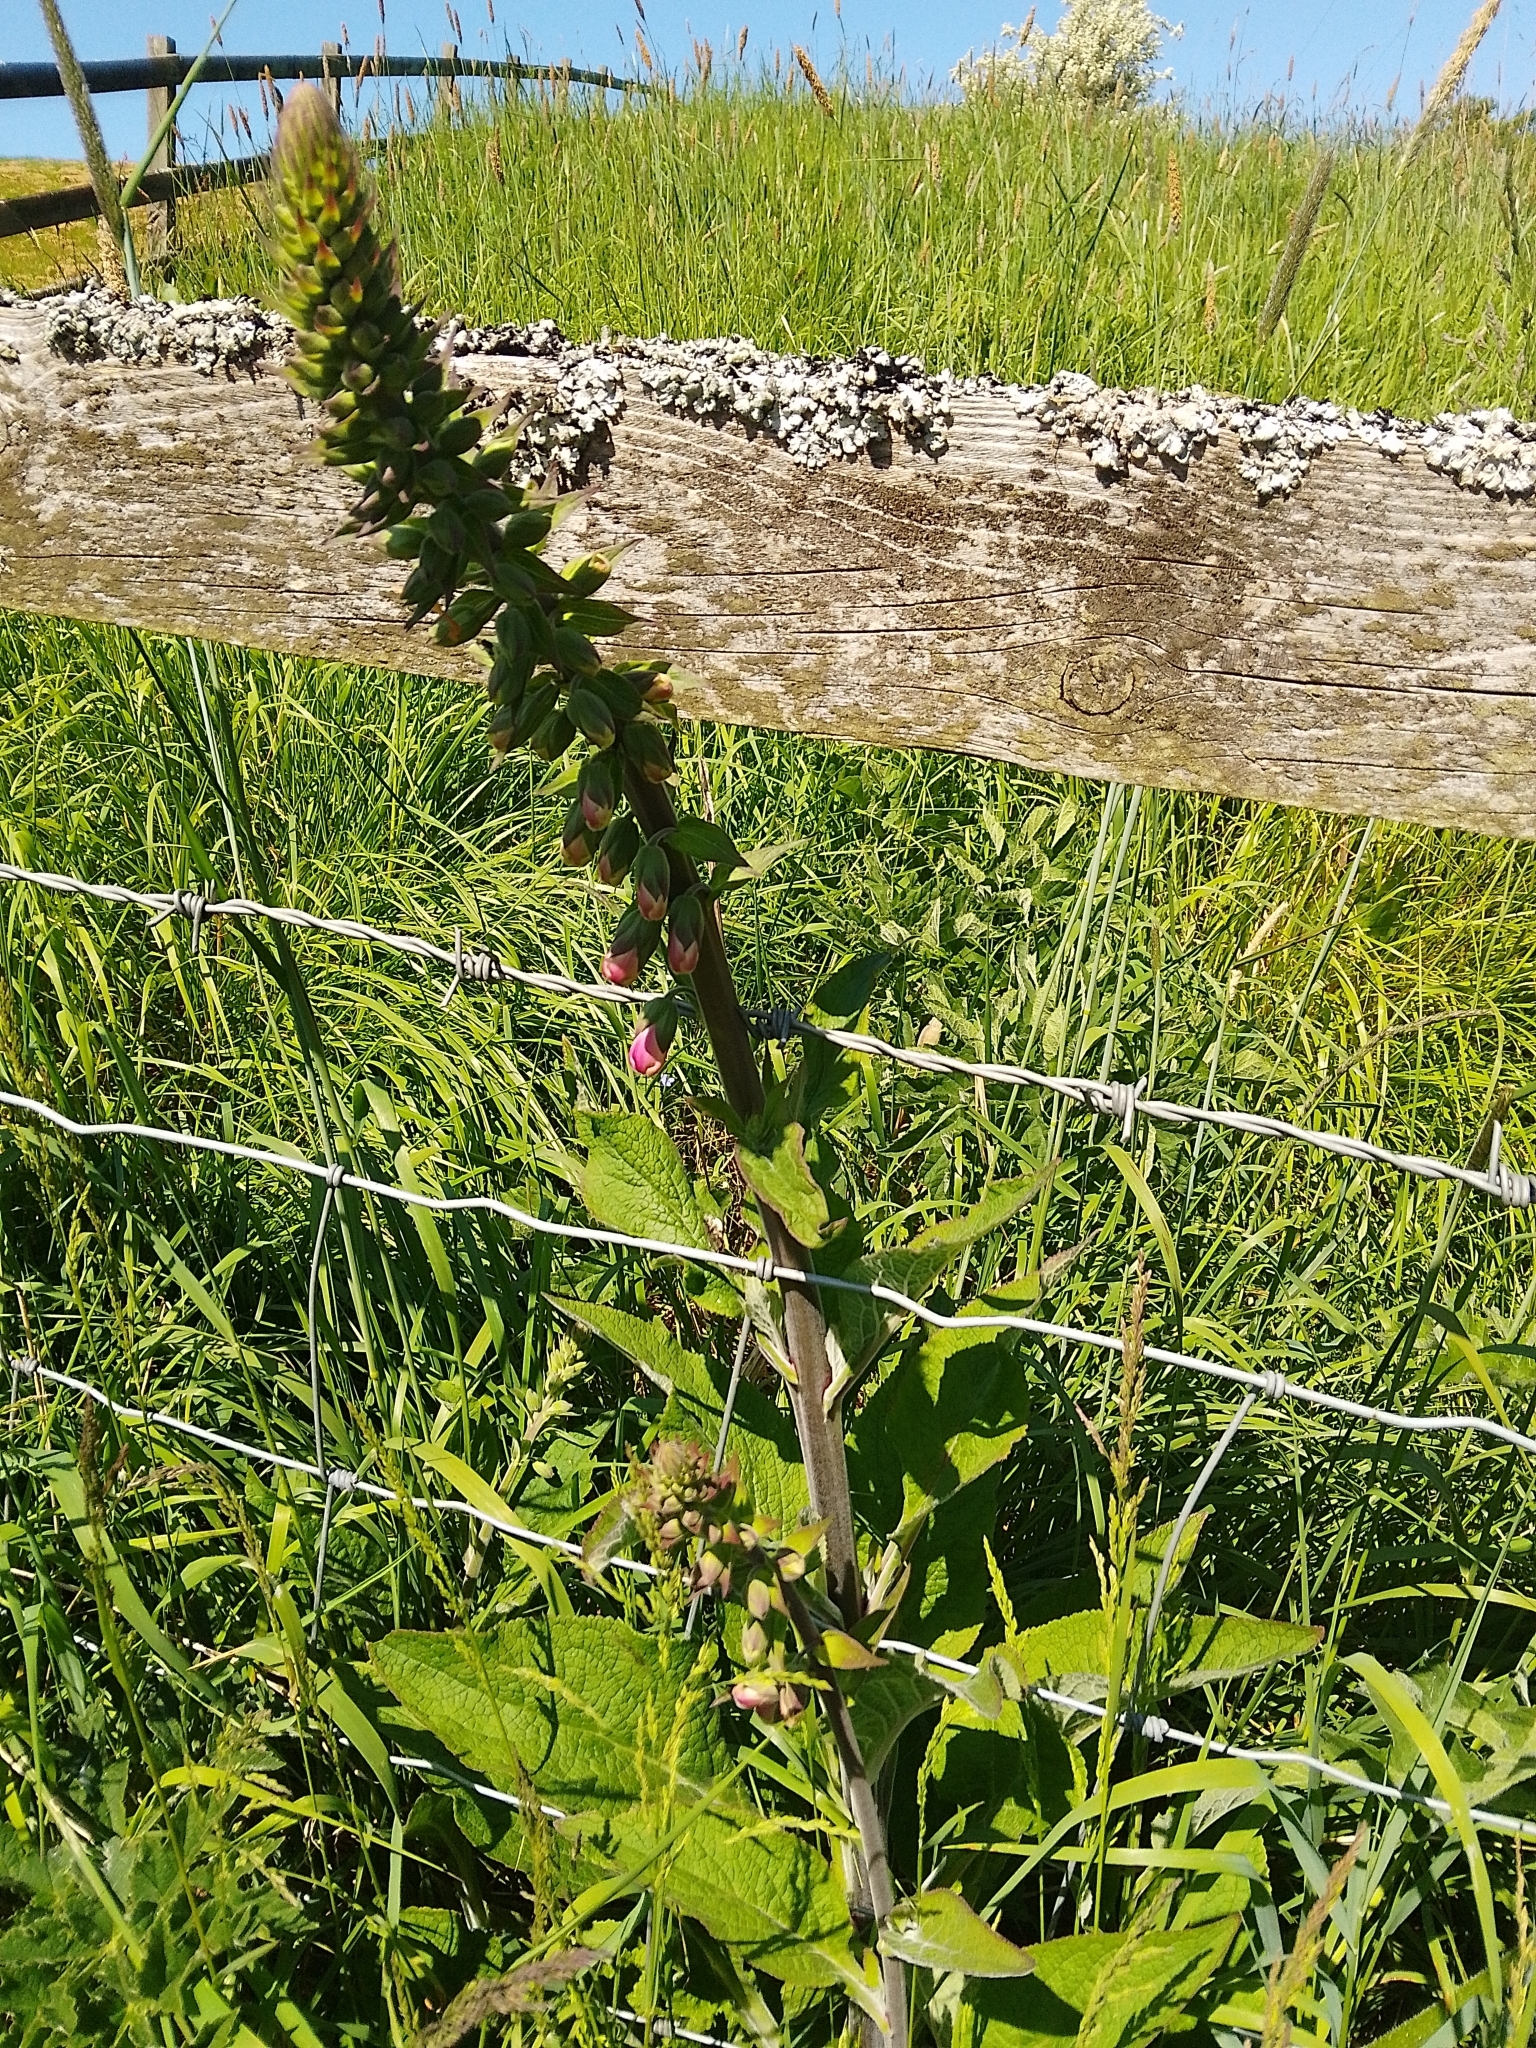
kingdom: Plantae
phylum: Tracheophyta
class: Magnoliopsida
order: Lamiales
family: Plantaginaceae
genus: Digitalis
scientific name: Digitalis purpurea
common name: Foxglove
